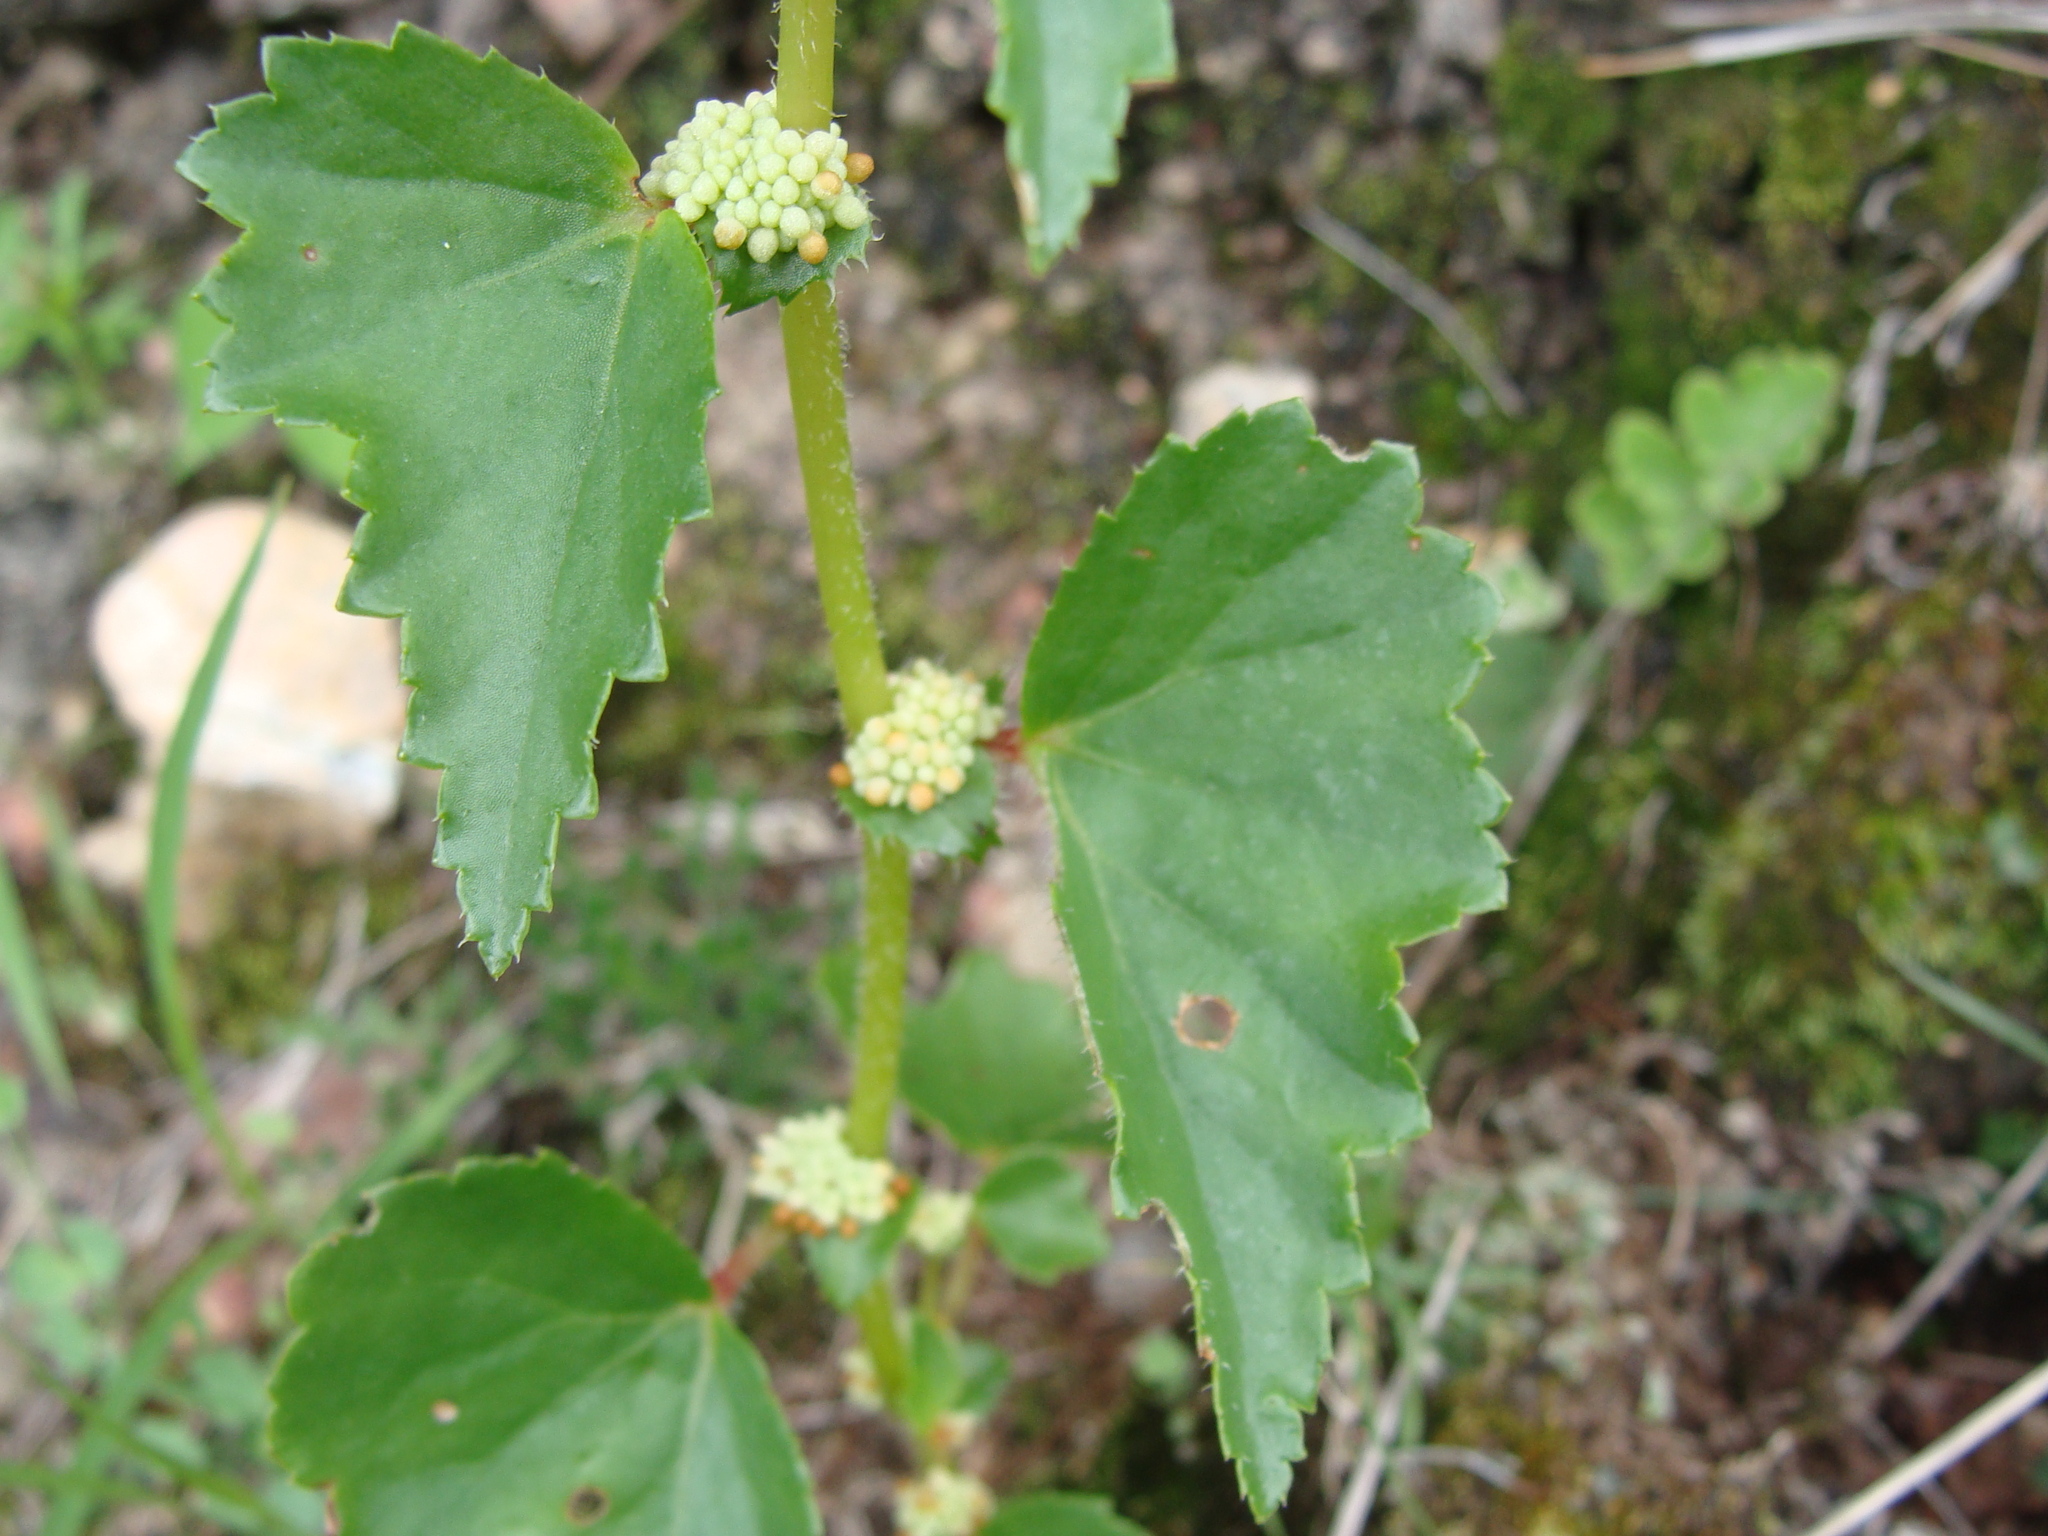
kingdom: Plantae
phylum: Tracheophyta
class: Magnoliopsida
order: Cucurbitales
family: Begoniaceae
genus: Begonia
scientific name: Begonia gracilis
